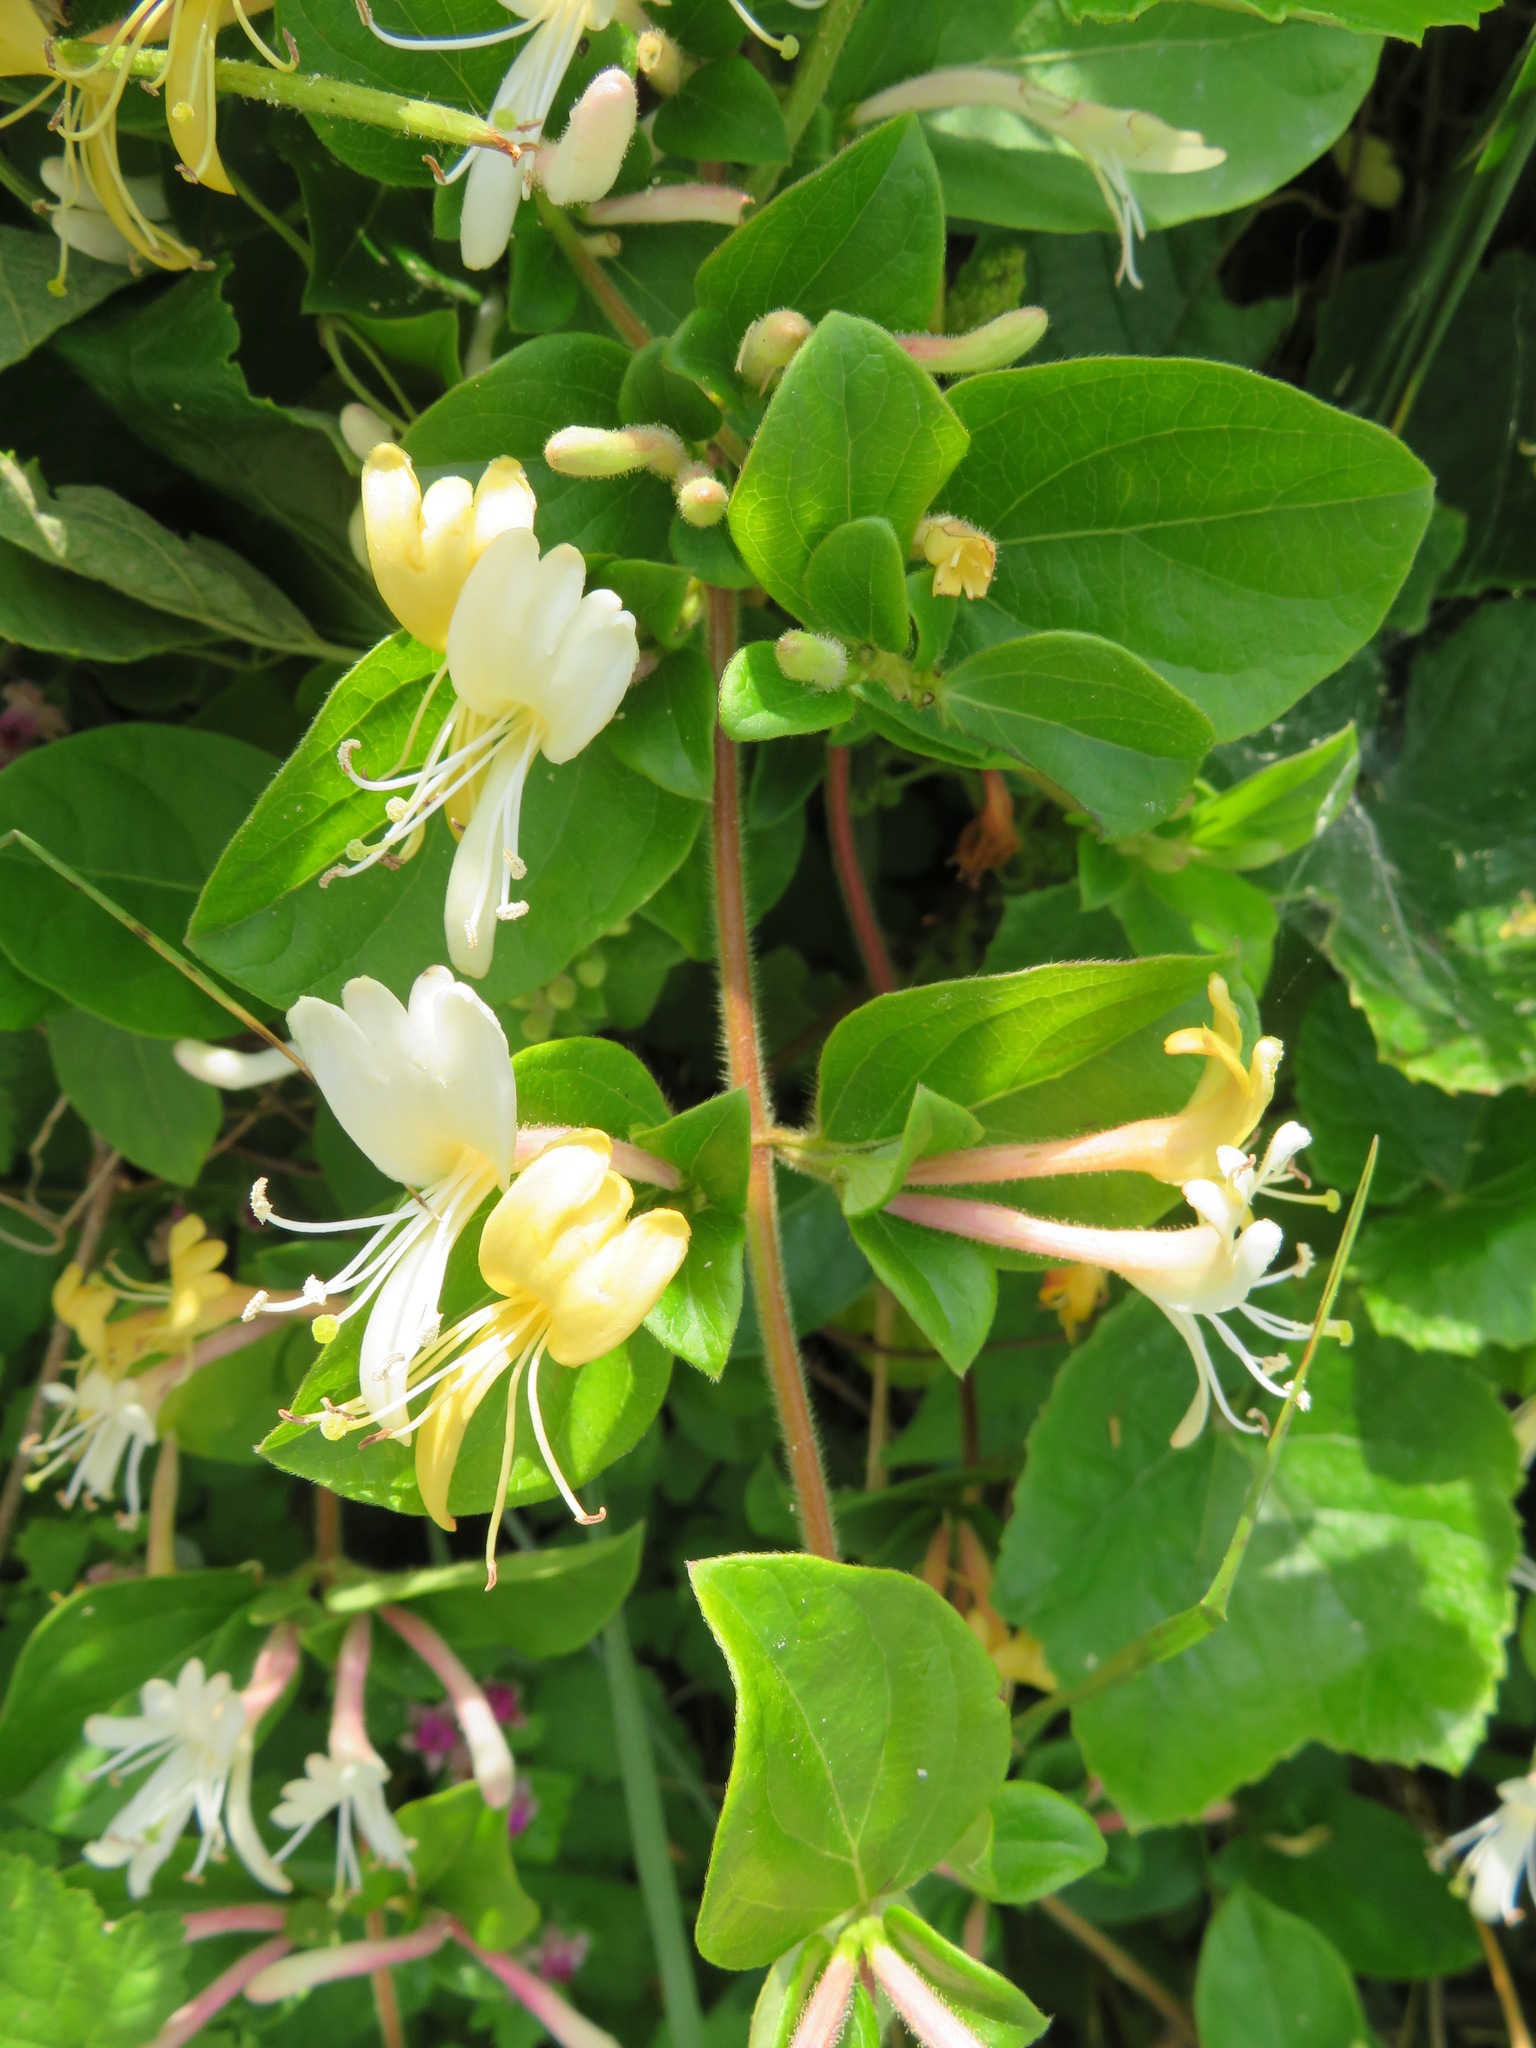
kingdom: Plantae
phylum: Tracheophyta
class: Magnoliopsida
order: Dipsacales
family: Caprifoliaceae
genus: Lonicera
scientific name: Lonicera japonica
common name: Japanese honeysuckle
